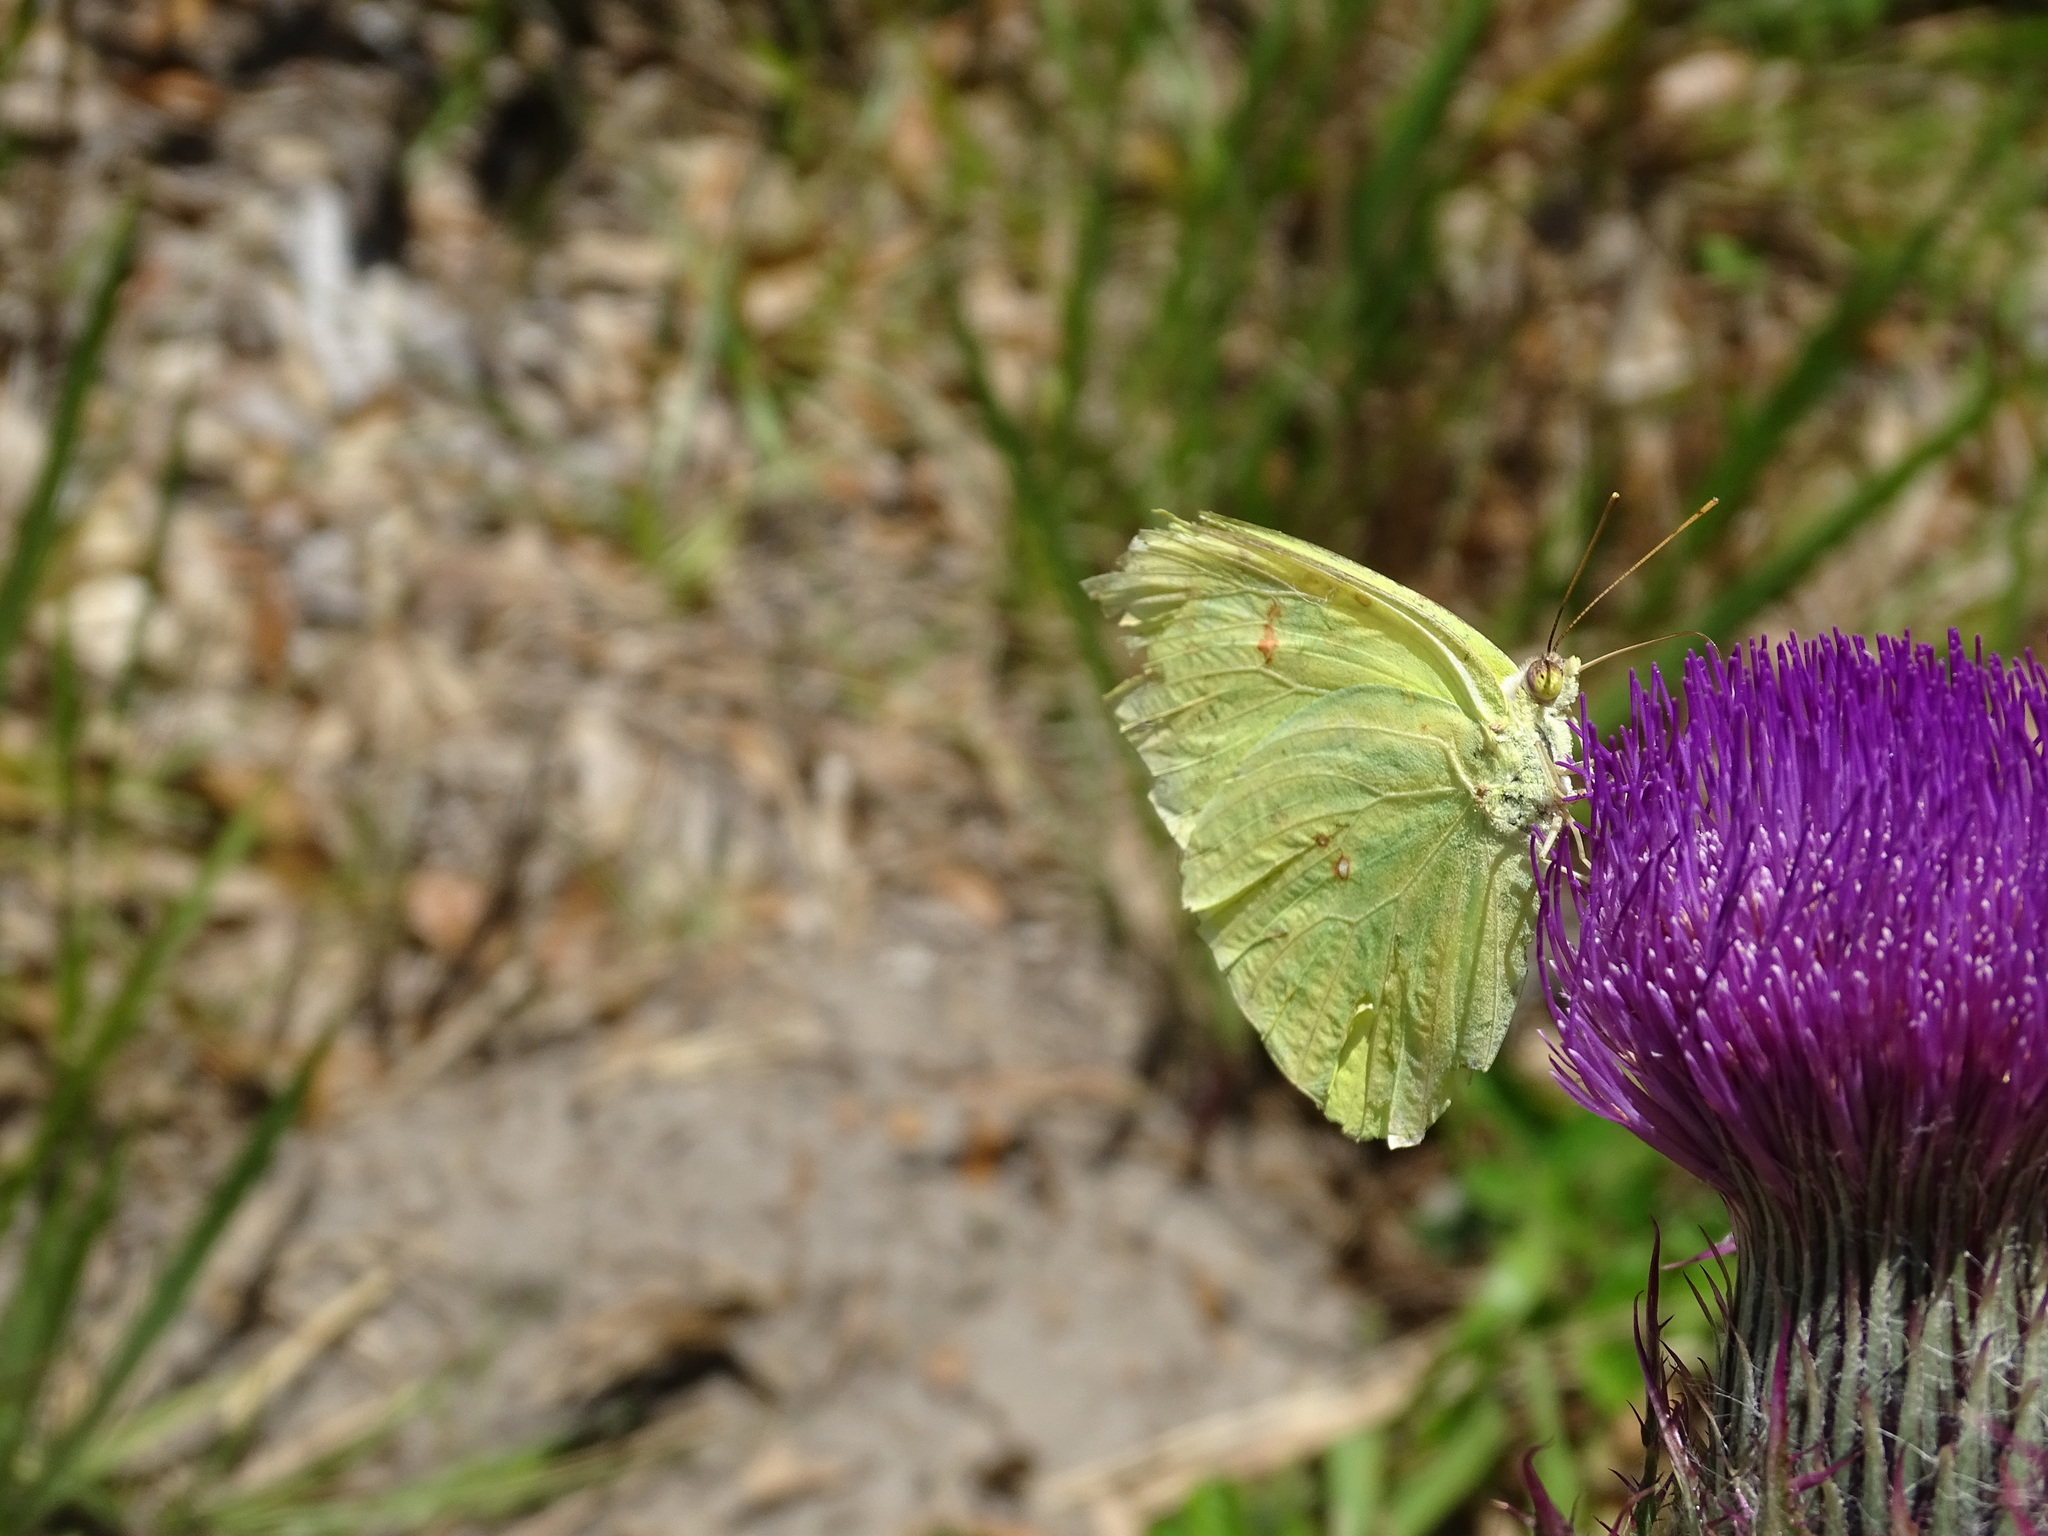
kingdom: Animalia
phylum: Arthropoda
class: Insecta
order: Lepidoptera
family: Pieridae
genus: Phoebis
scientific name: Phoebis sennae
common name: Cloudless sulphur
